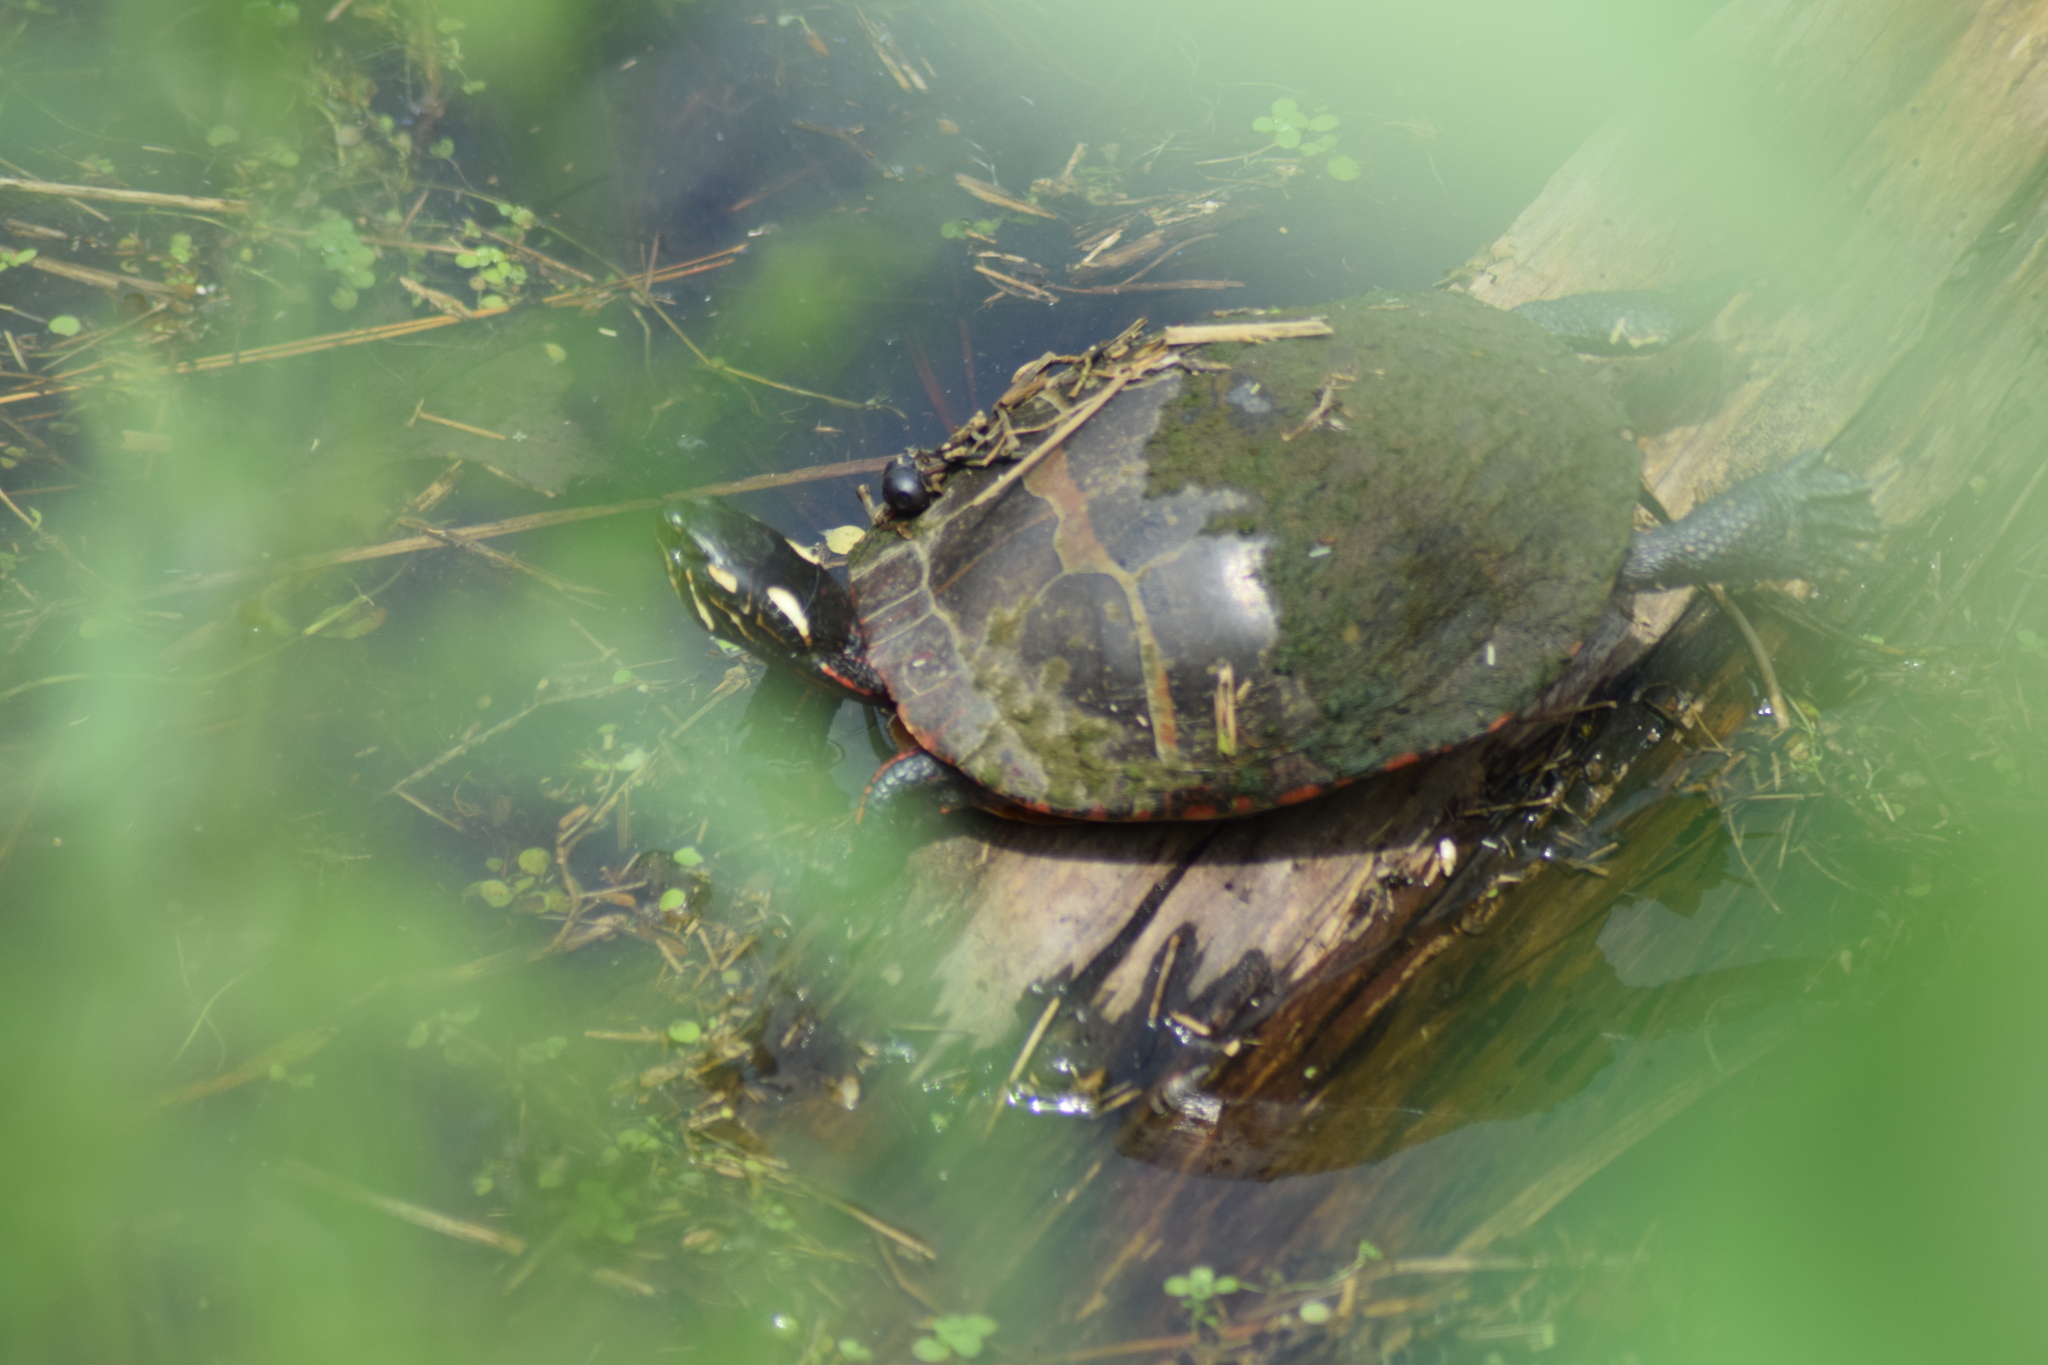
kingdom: Animalia
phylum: Chordata
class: Testudines
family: Emydidae
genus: Chrysemys
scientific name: Chrysemys picta
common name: Painted turtle
